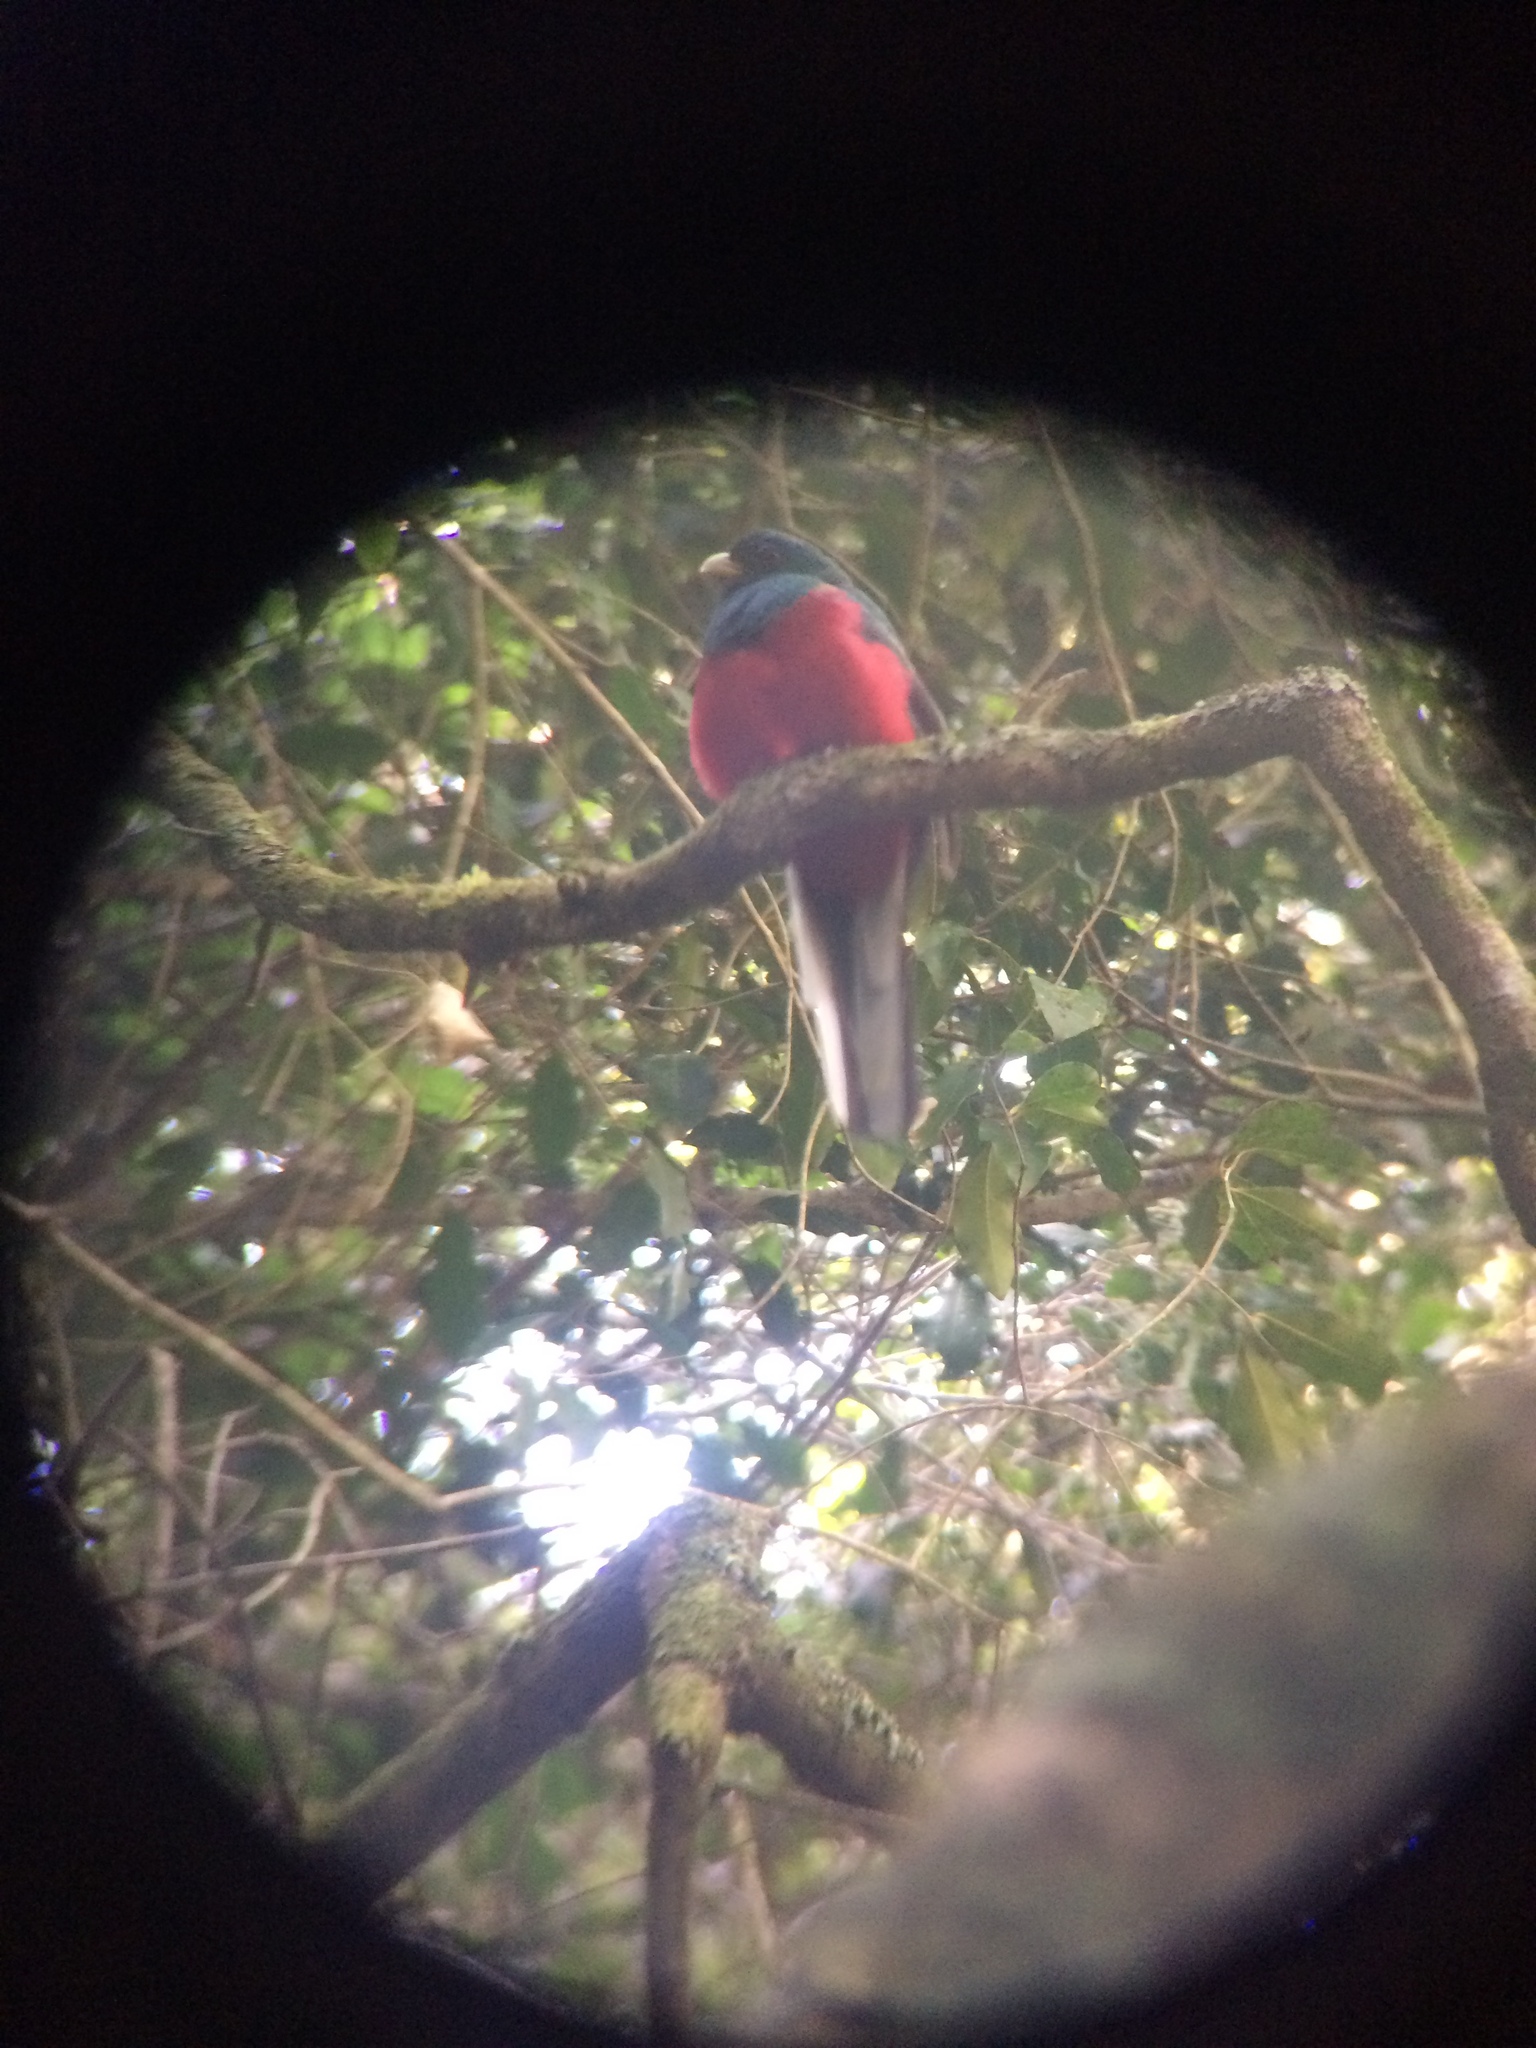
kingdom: Animalia
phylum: Chordata
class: Aves
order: Trogoniformes
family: Trogonidae
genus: Apaloderma
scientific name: Apaloderma narina
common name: Narina trogon
